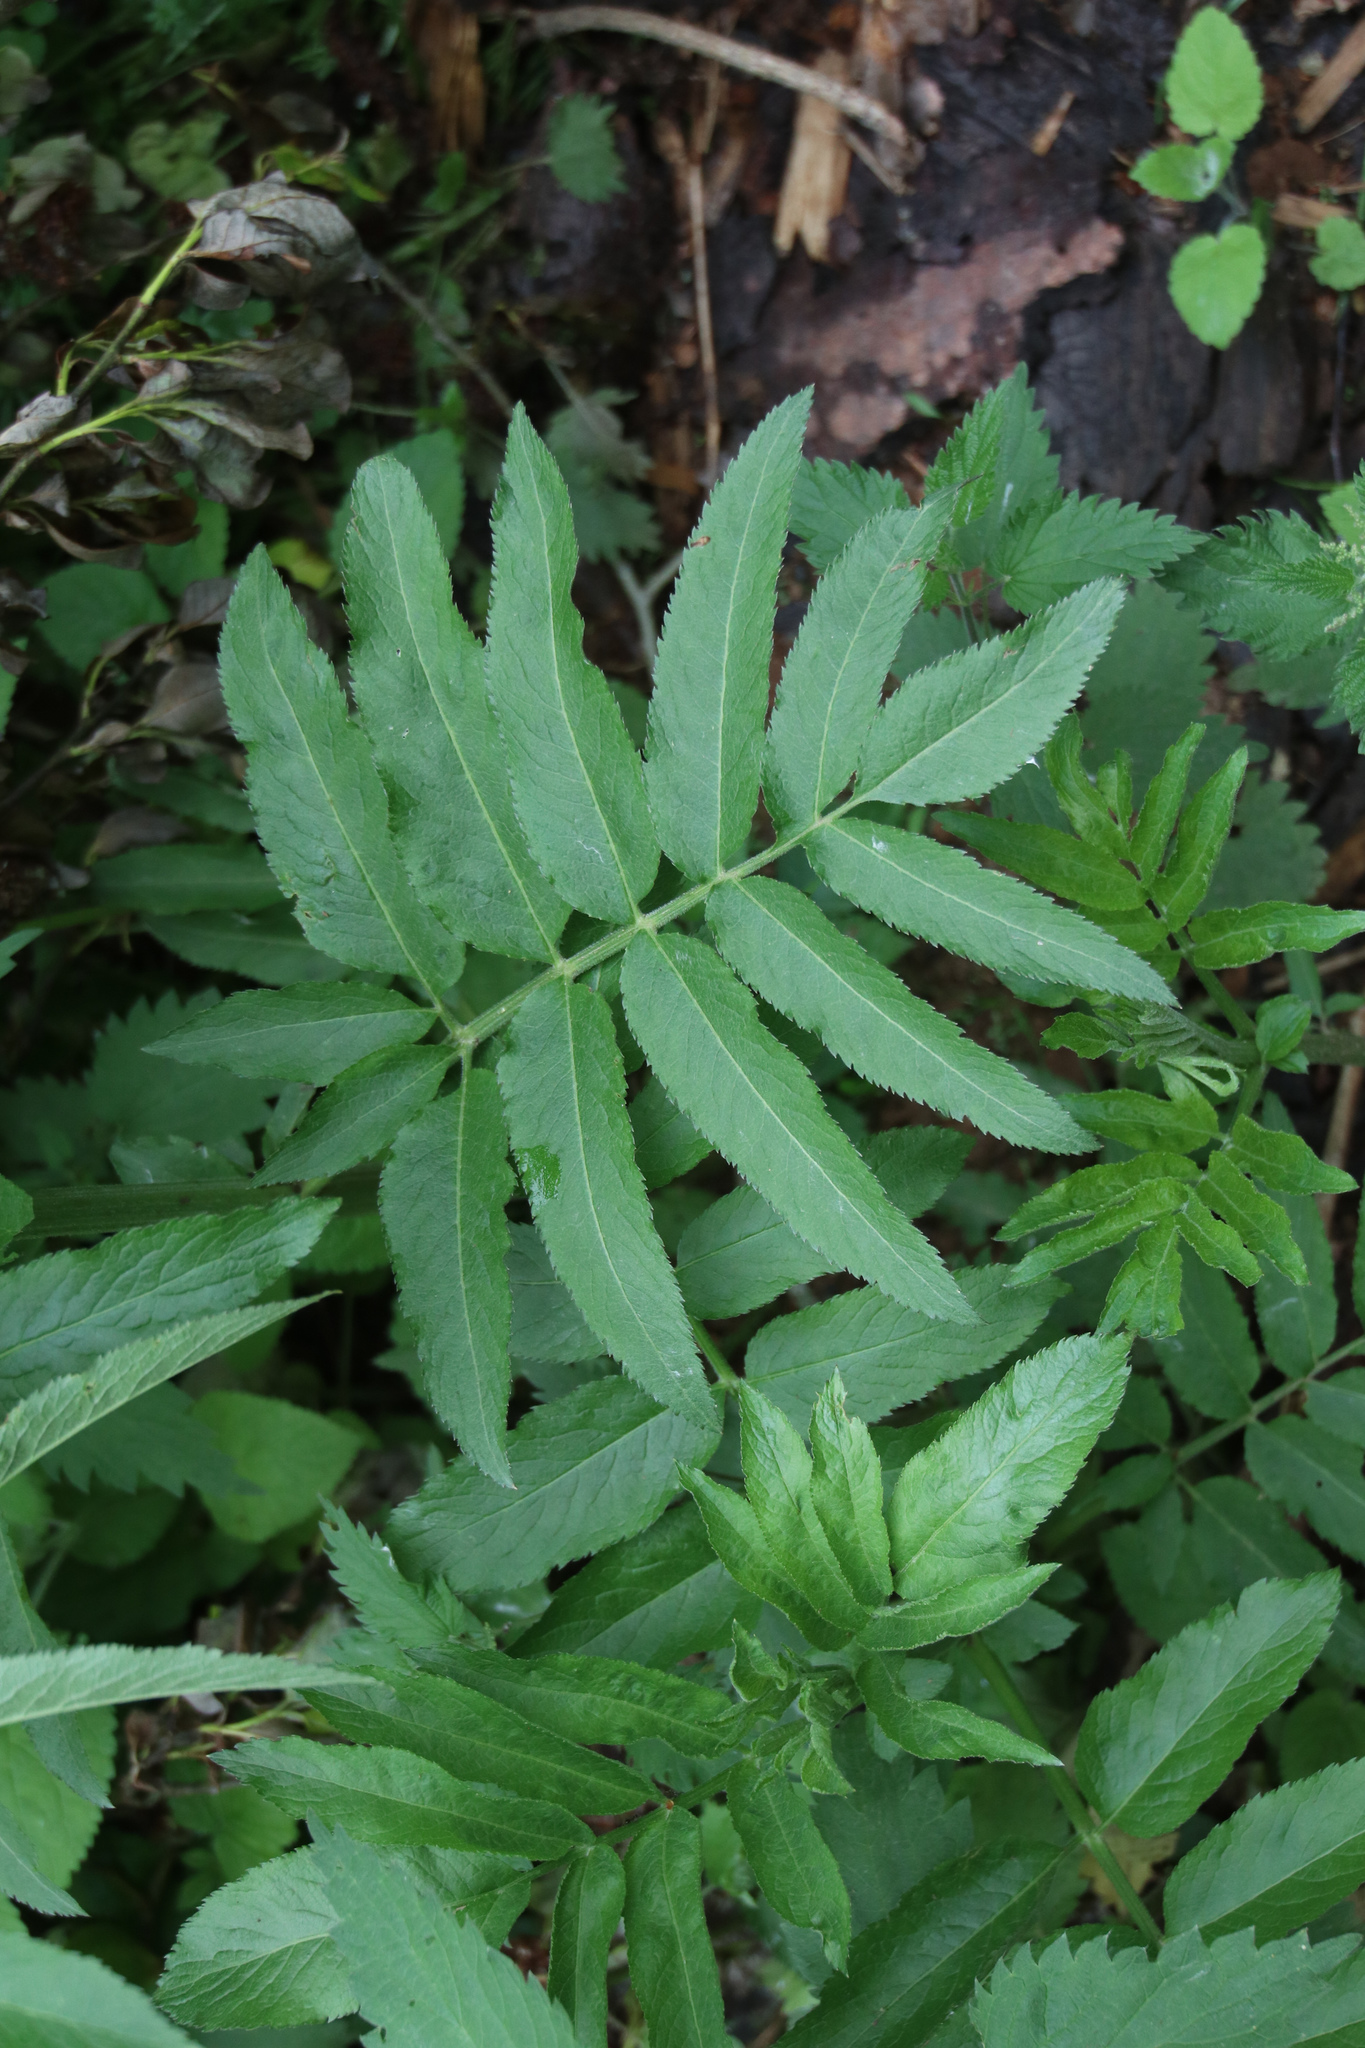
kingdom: Plantae
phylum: Tracheophyta
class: Magnoliopsida
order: Dipsacales
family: Viburnaceae
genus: Sambucus
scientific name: Sambucus ebulus
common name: Dwarf elder
